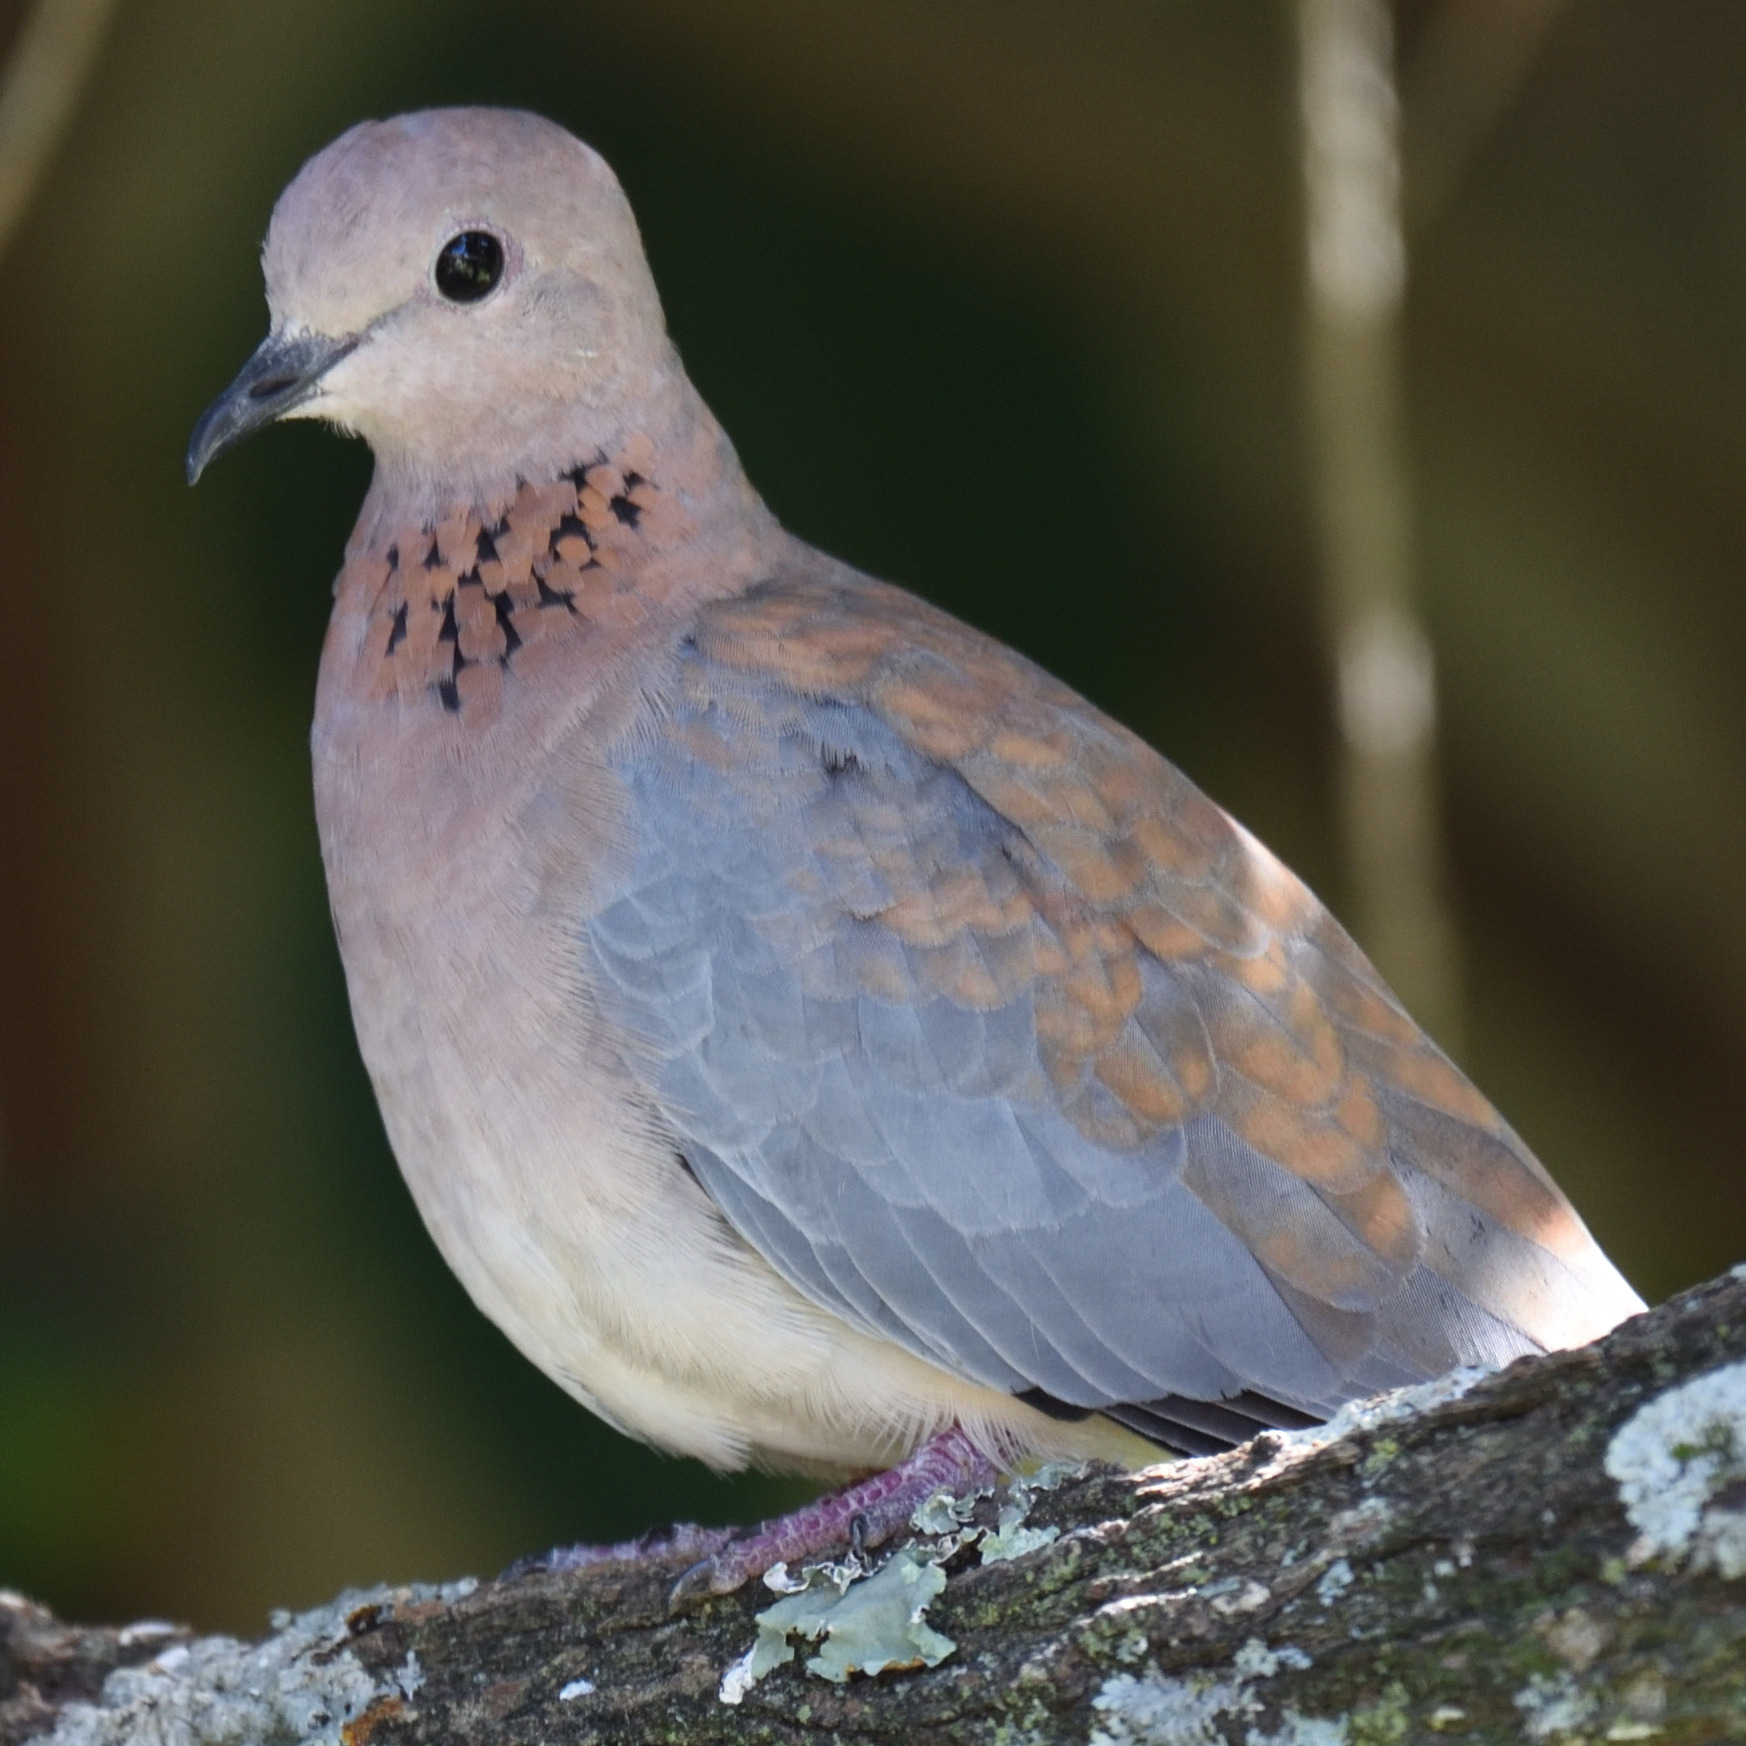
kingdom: Animalia
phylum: Chordata
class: Aves
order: Columbiformes
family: Columbidae
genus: Spilopelia
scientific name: Spilopelia senegalensis
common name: Laughing dove
